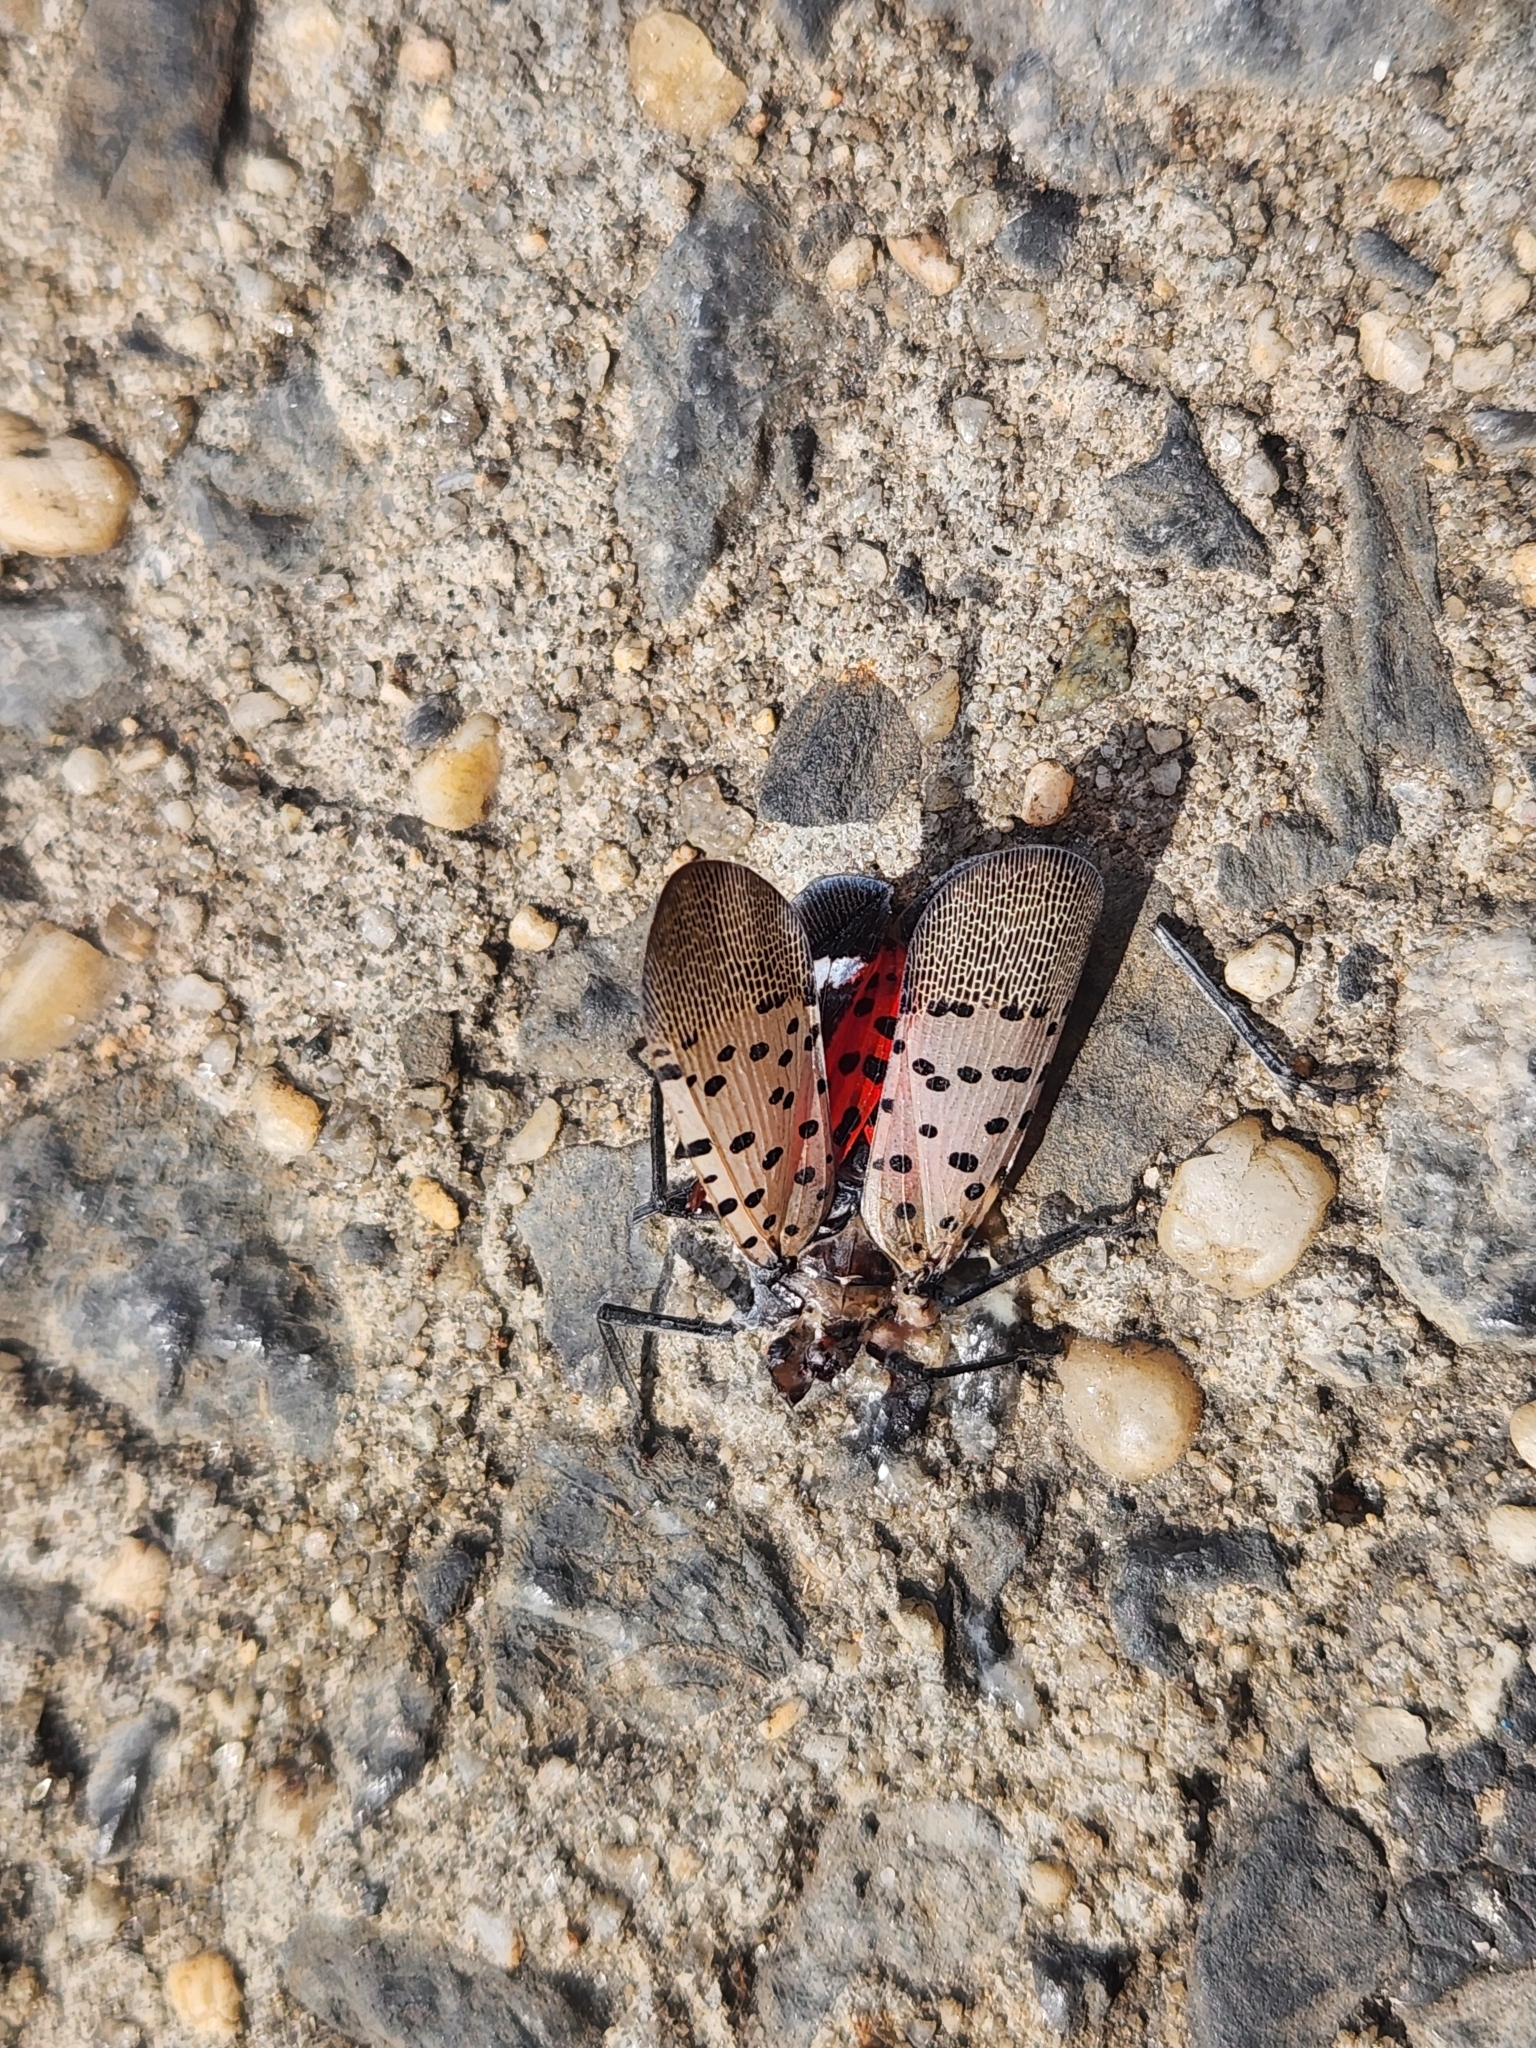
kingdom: Animalia
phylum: Arthropoda
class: Insecta
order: Hemiptera
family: Fulgoridae
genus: Lycorma
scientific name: Lycorma delicatula
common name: Spotted lanternfly
